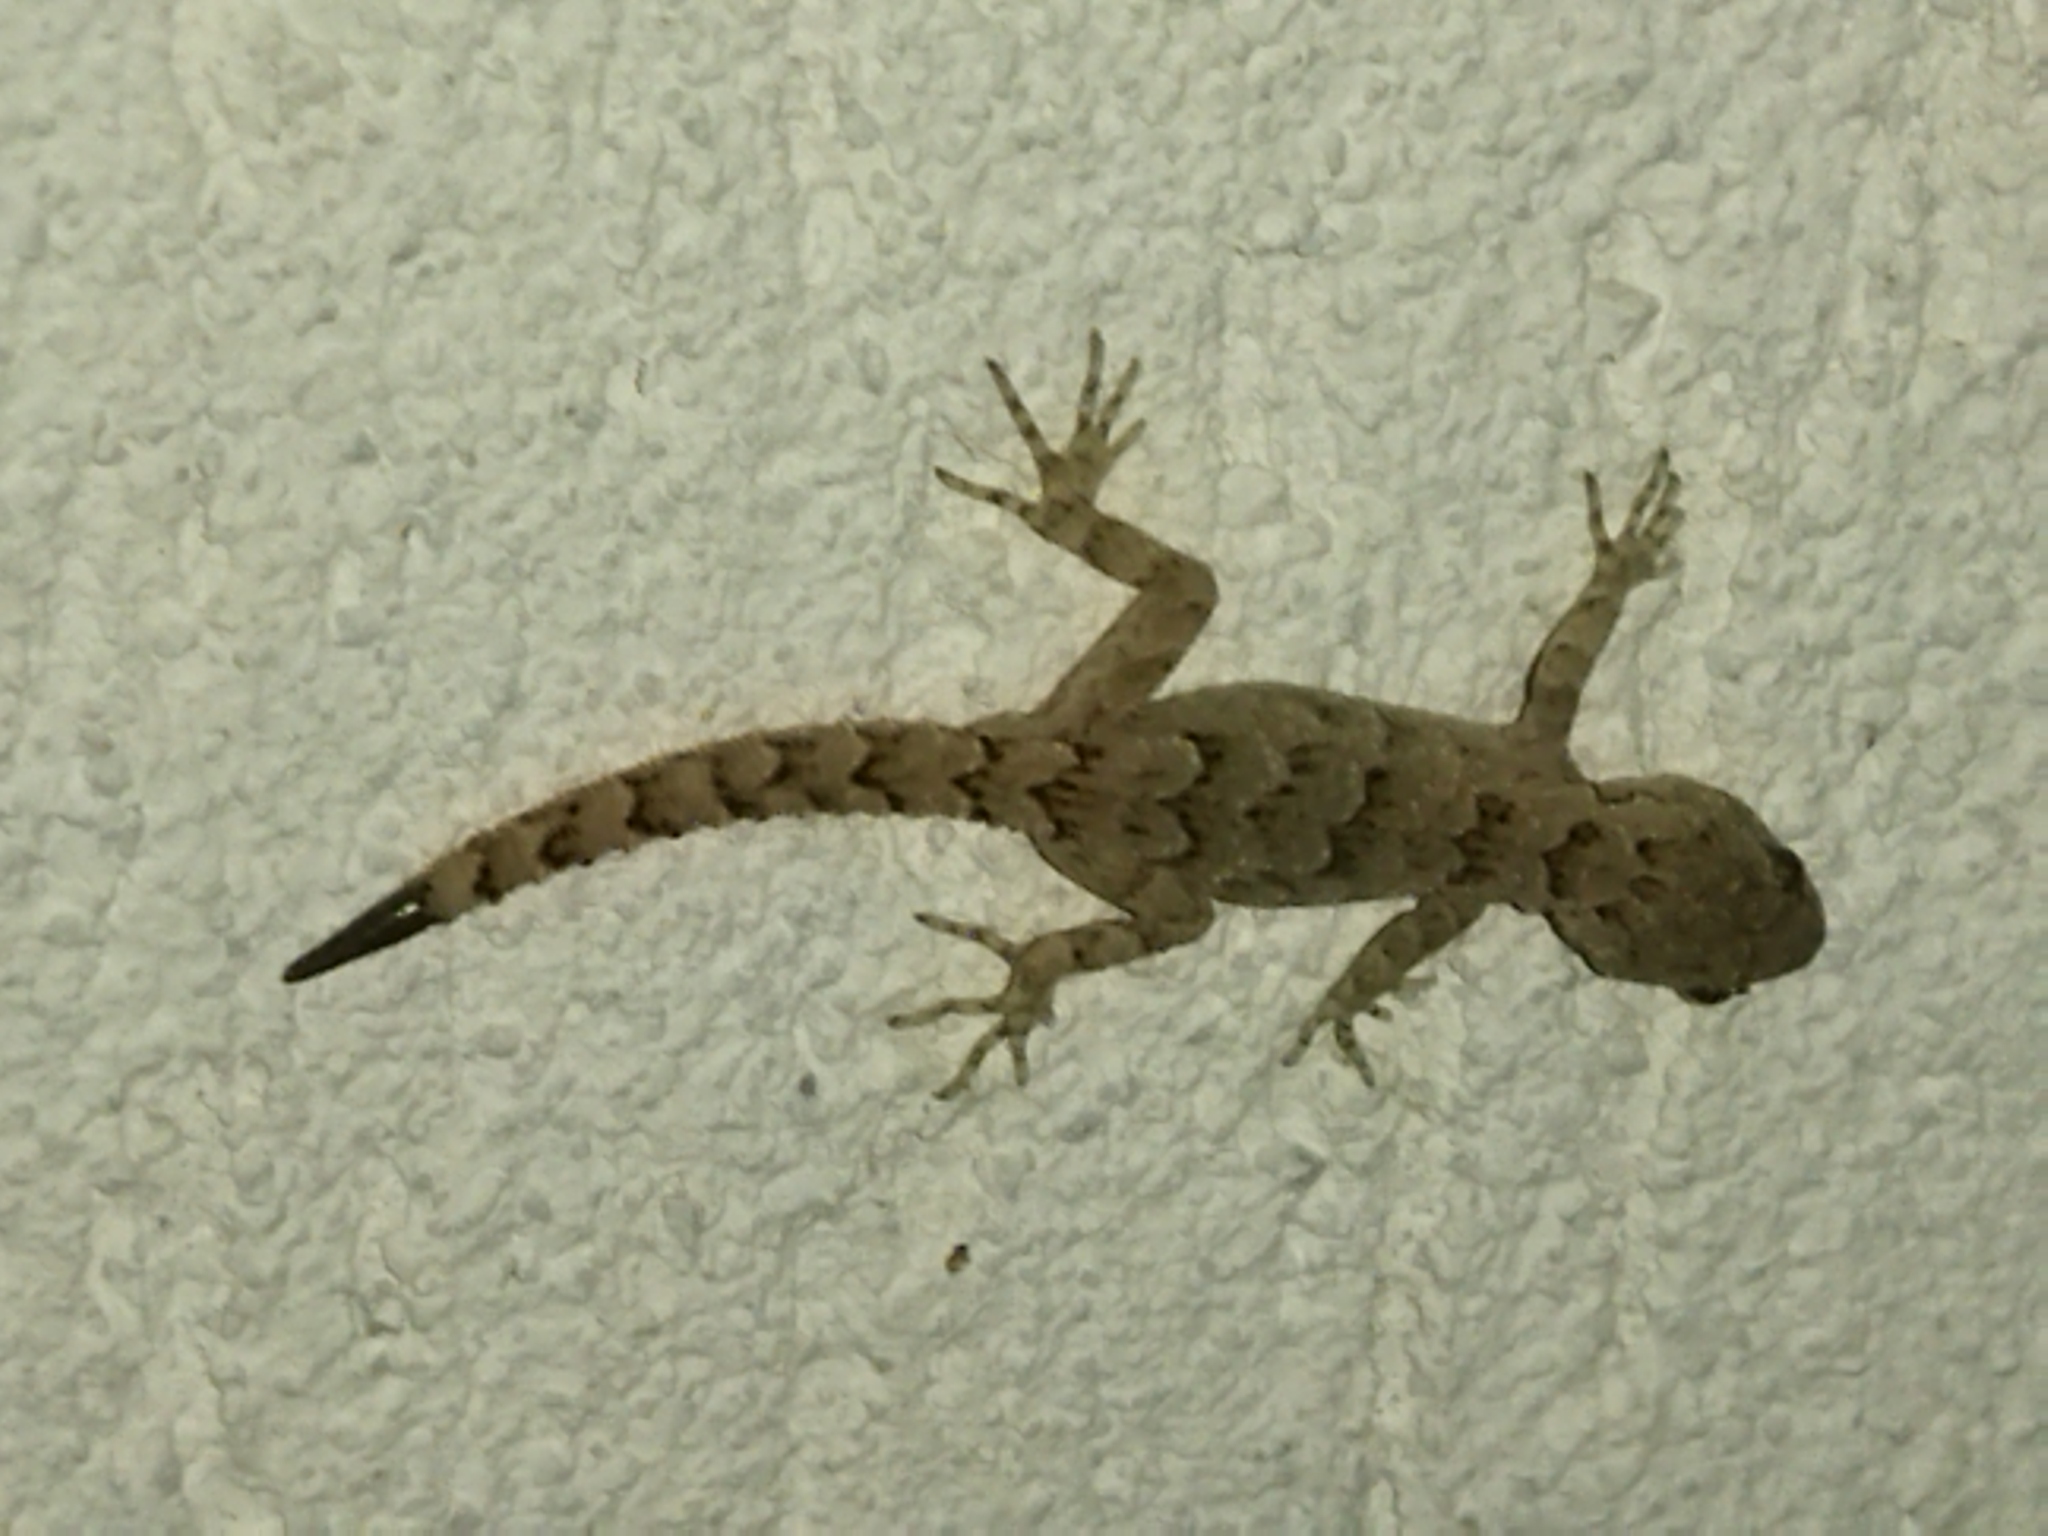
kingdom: Animalia
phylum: Chordata
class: Squamata
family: Gekkonidae
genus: Mediodactylus
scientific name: Mediodactylus kotschyi
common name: Kotschy's gecko
